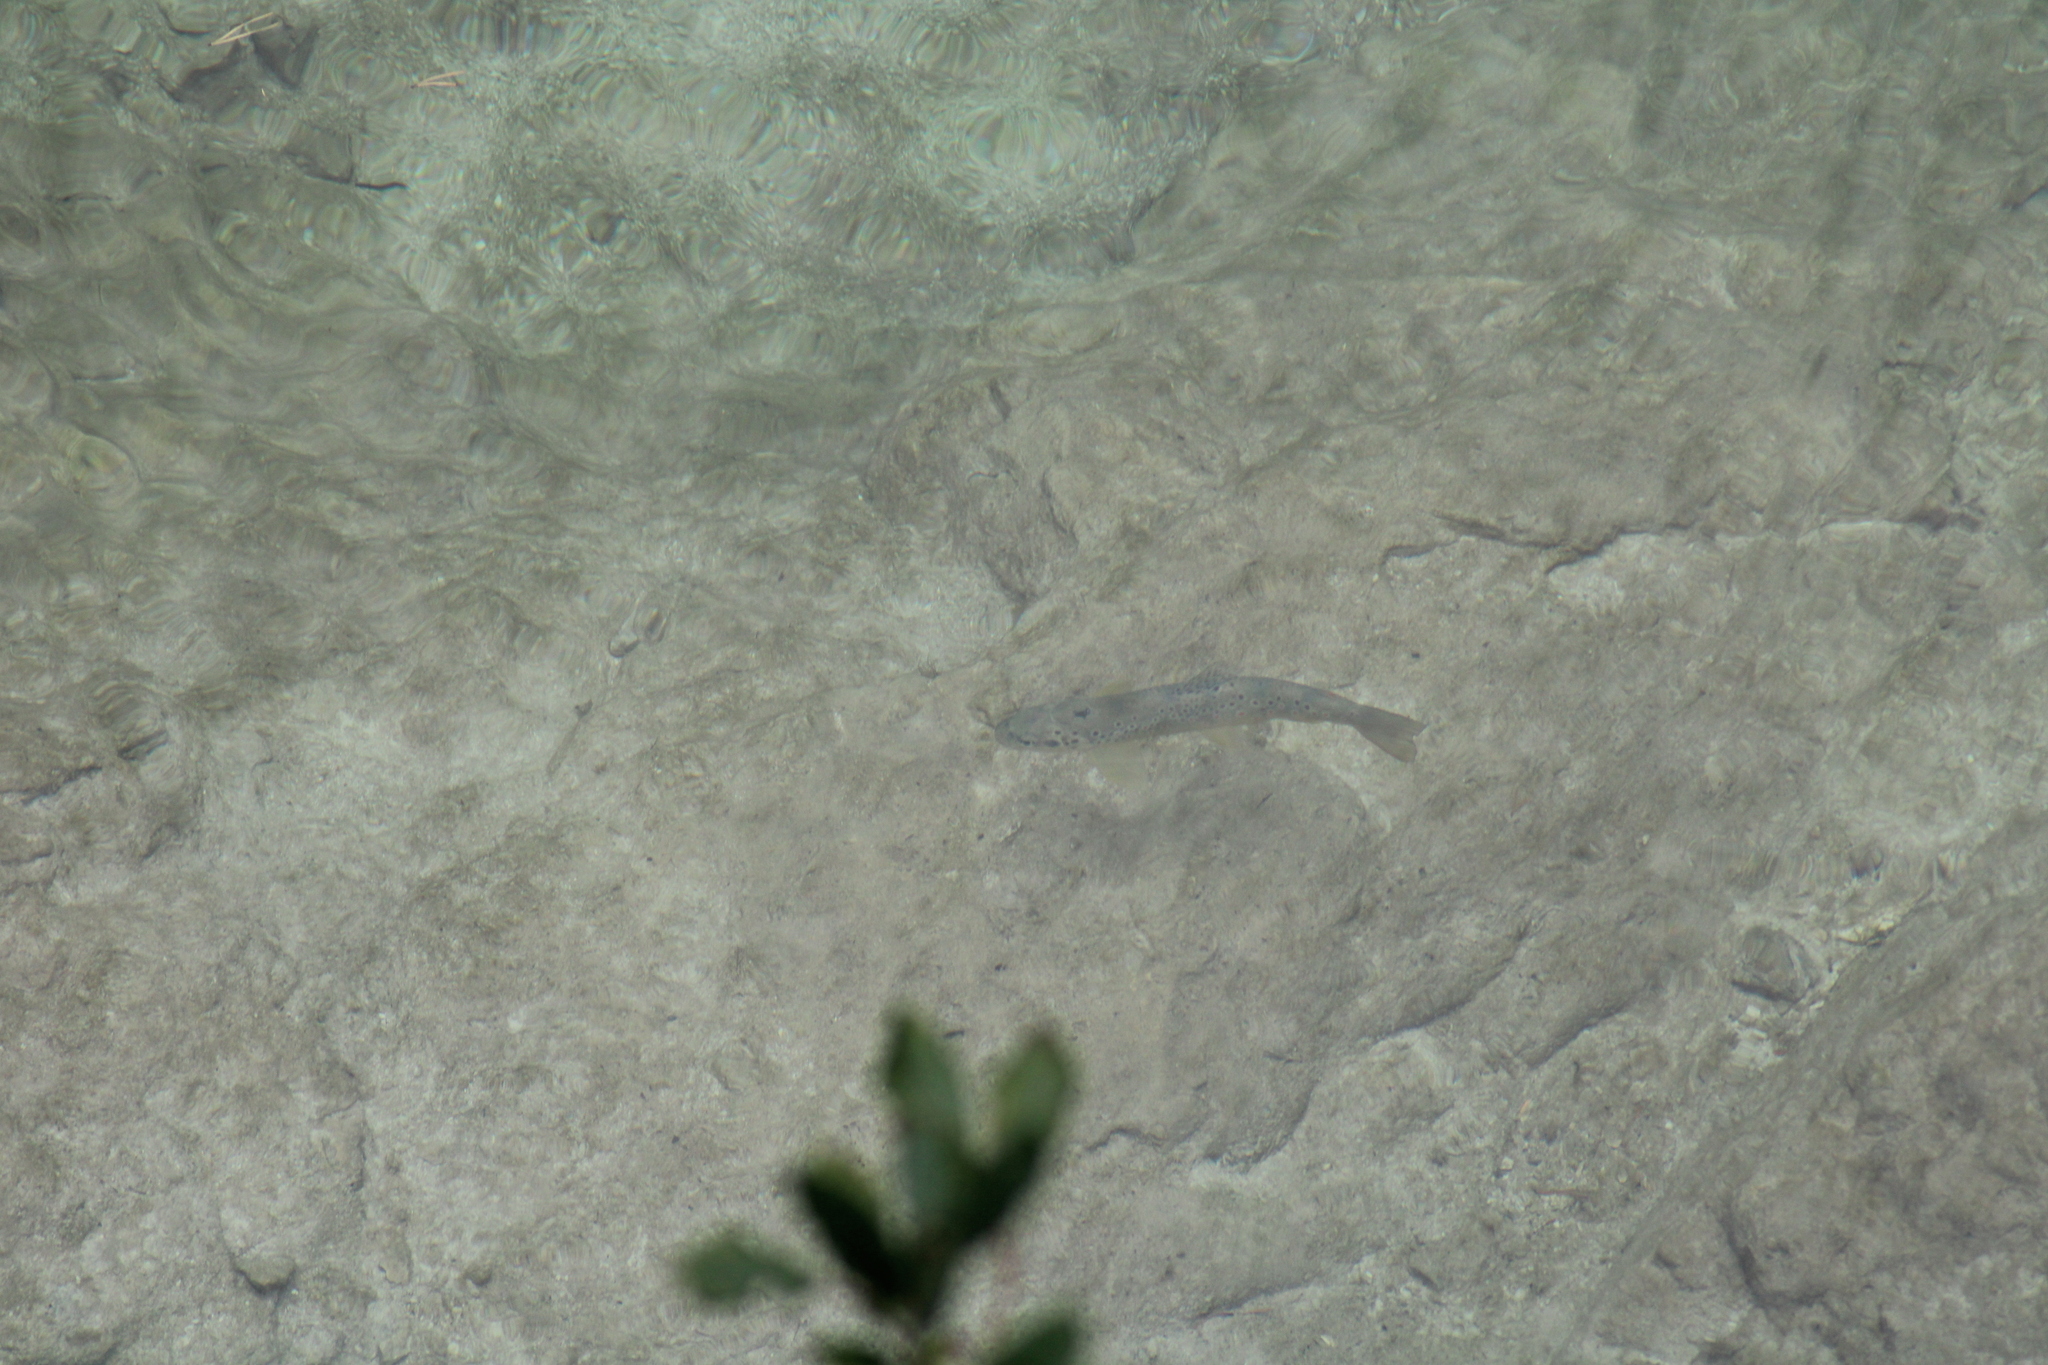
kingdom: Animalia
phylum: Chordata
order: Salmoniformes
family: Salmonidae
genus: Salmo
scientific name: Salmo trutta
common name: Brown trout
